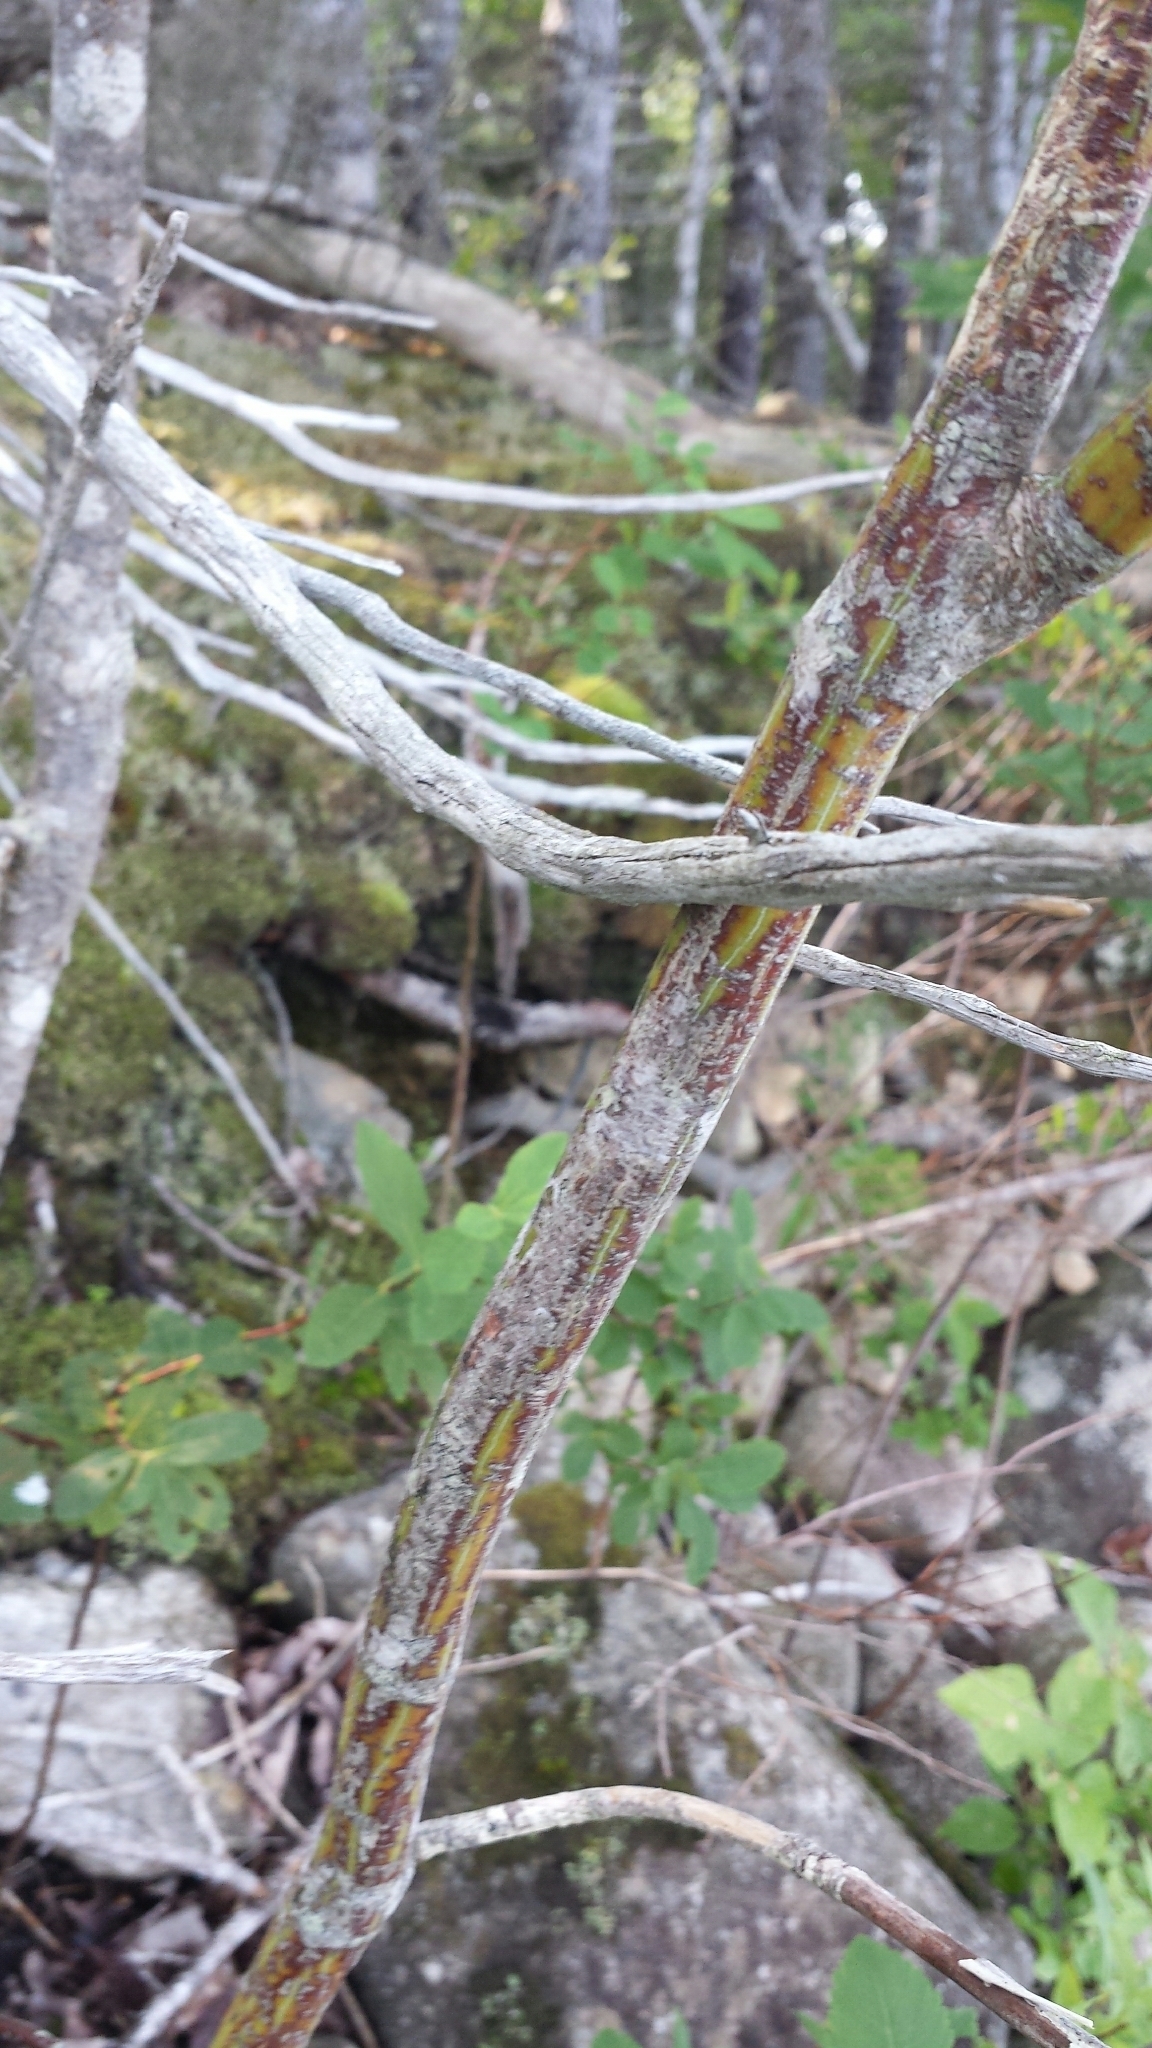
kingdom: Plantae
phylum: Tracheophyta
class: Magnoliopsida
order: Sapindales
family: Sapindaceae
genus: Acer
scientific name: Acer pensylvanicum
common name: Moosewood
